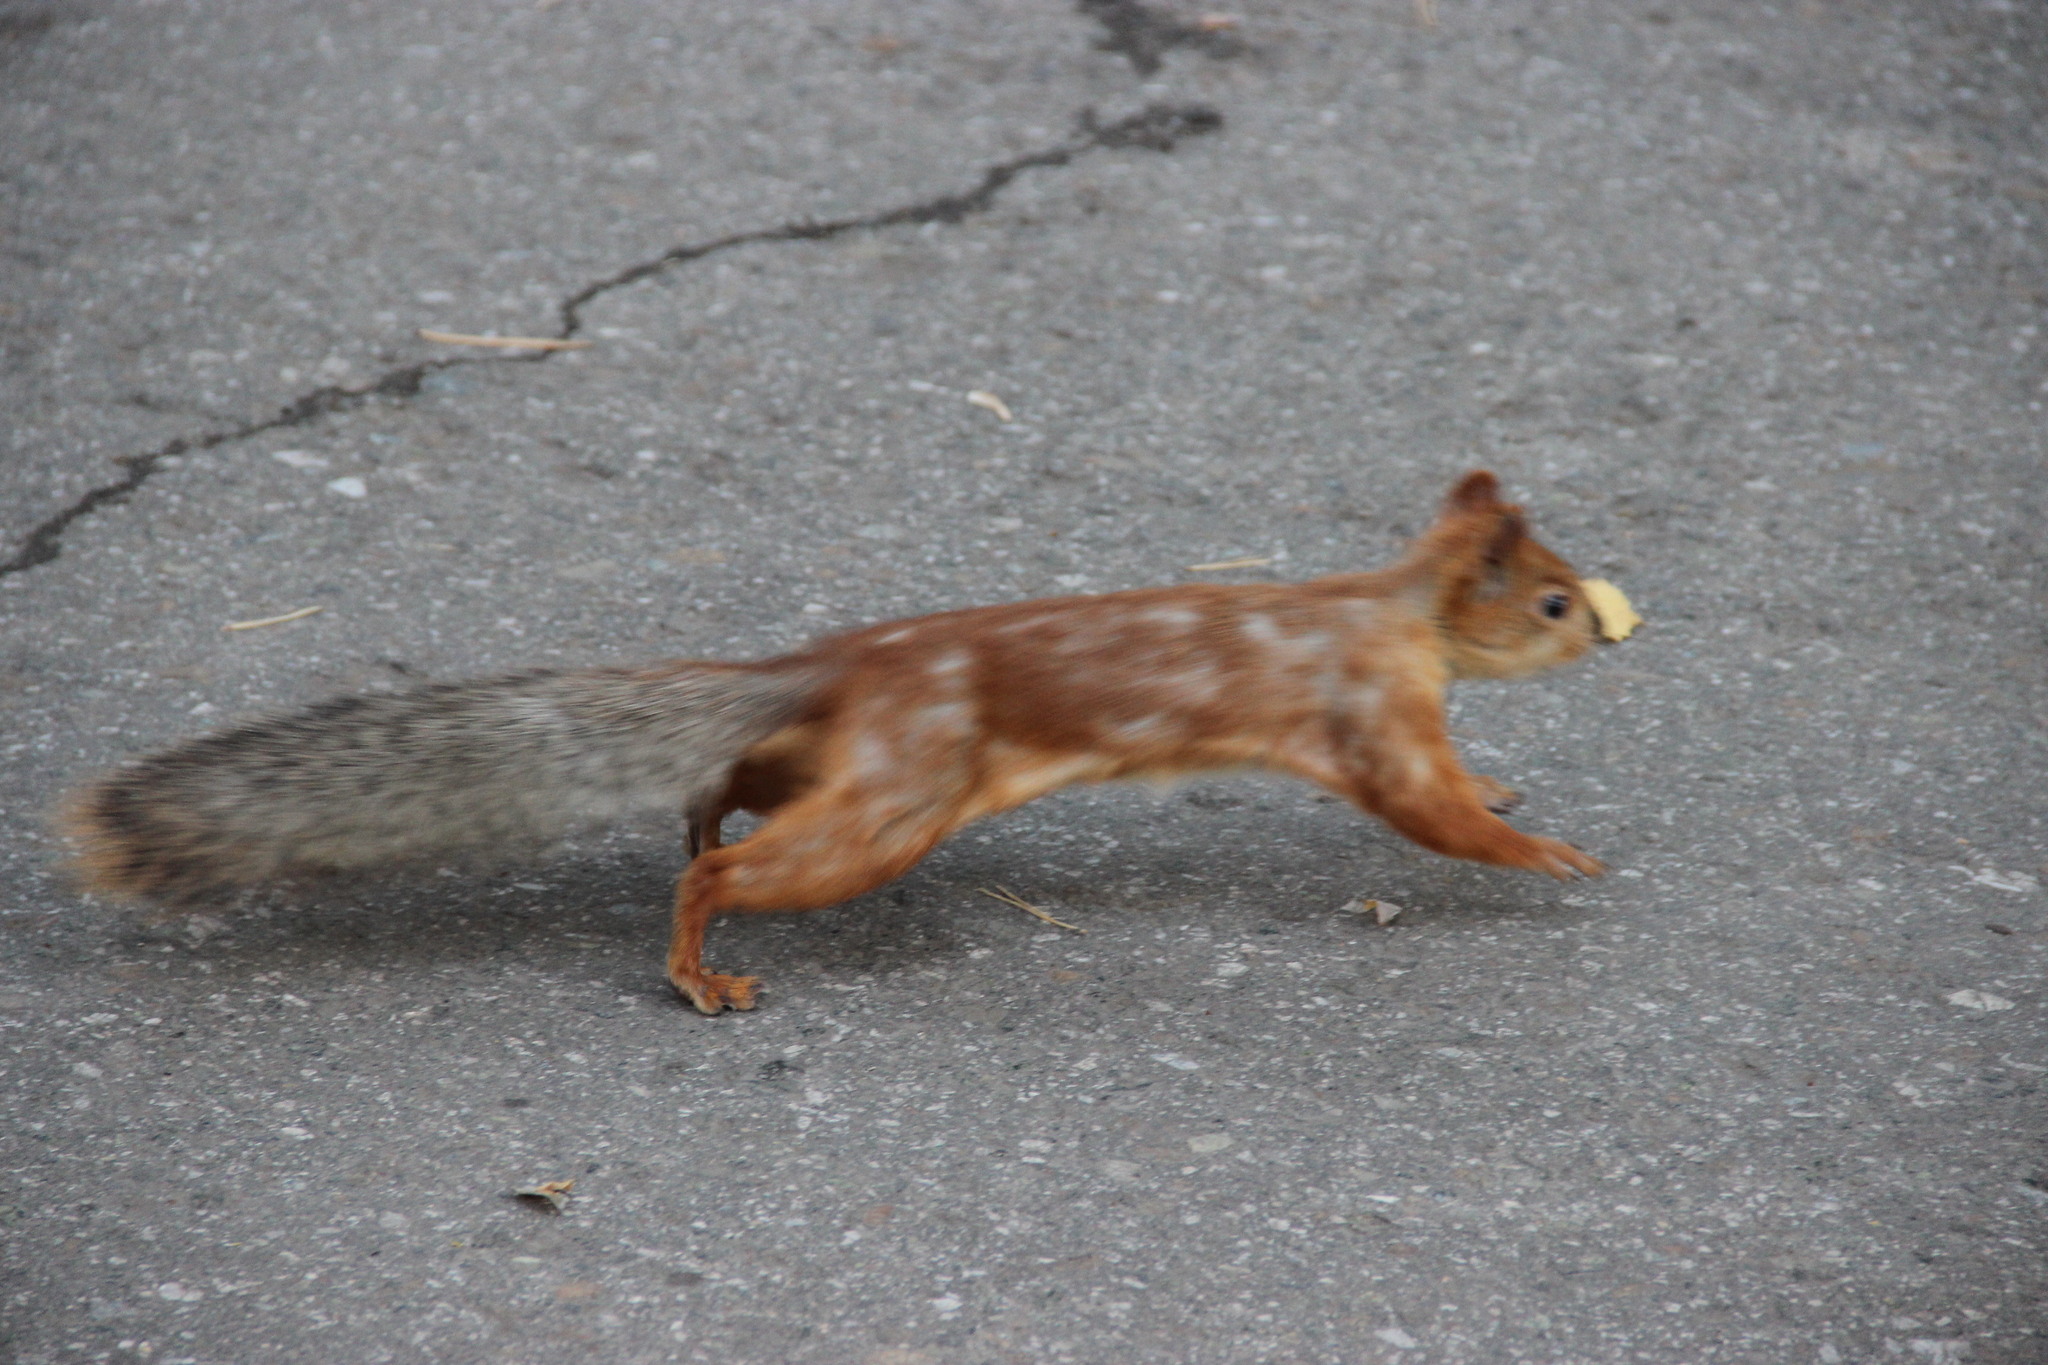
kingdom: Animalia
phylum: Chordata
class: Mammalia
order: Rodentia
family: Sciuridae
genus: Sciurus
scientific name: Sciurus vulgaris
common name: Eurasian red squirrel
